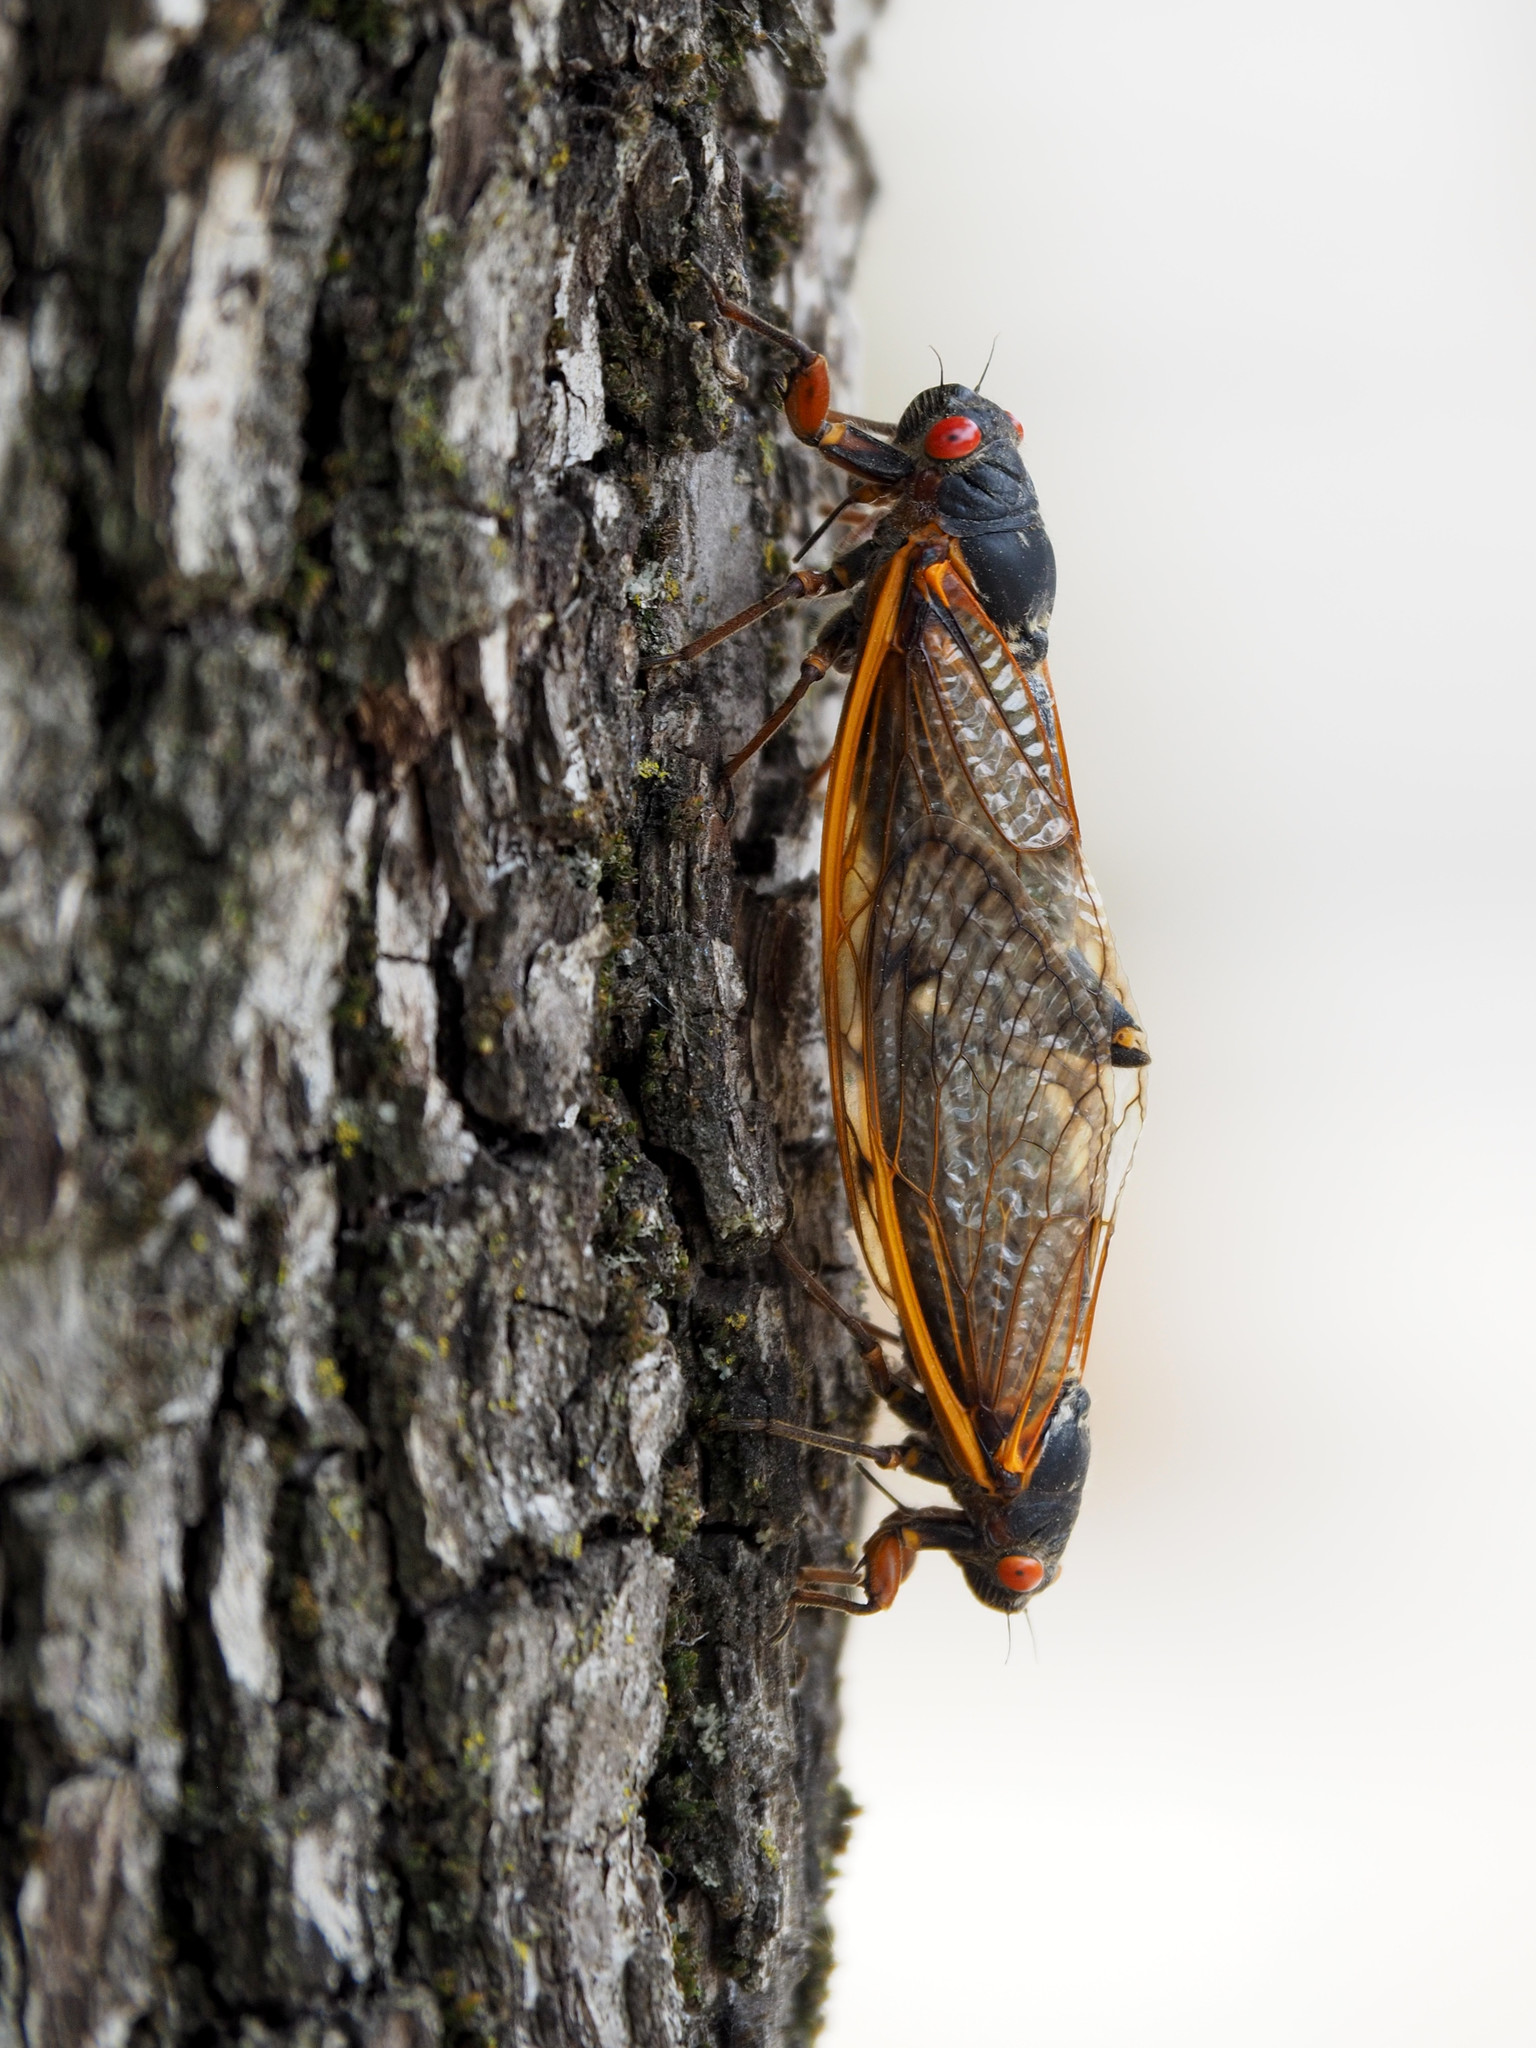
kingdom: Animalia
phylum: Arthropoda
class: Insecta
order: Hemiptera
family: Cicadidae
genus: Magicicada
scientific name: Magicicada septendecim
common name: Periodical cicada
